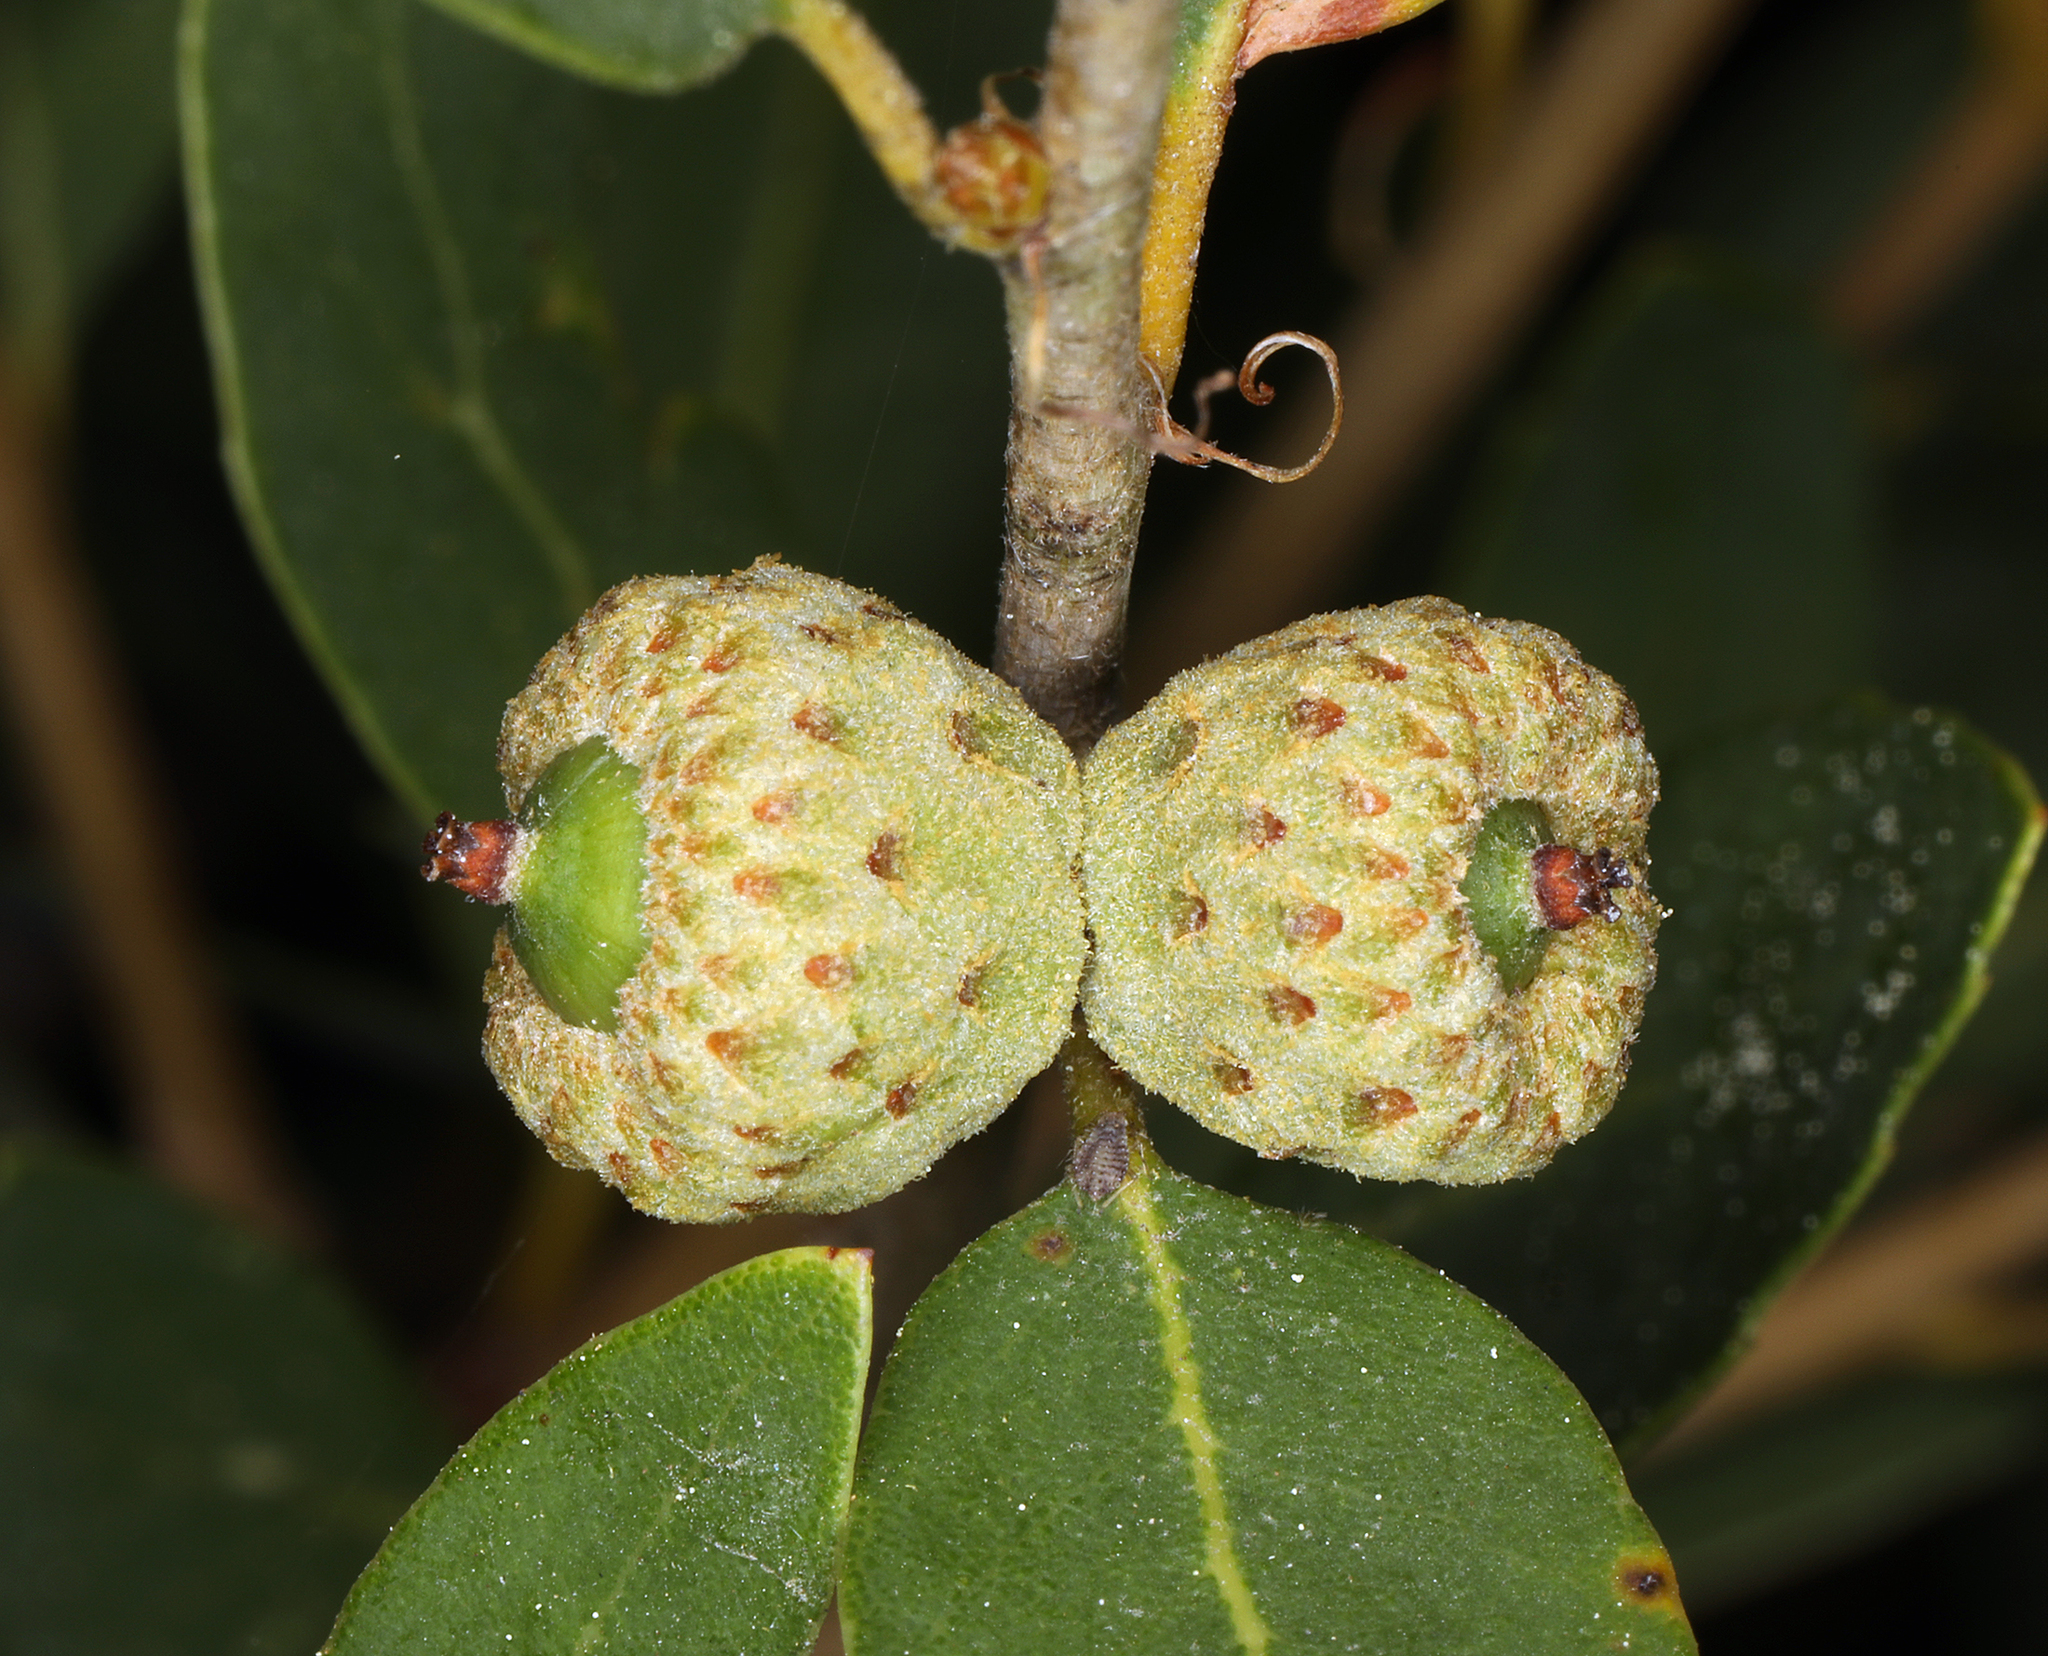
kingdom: Plantae
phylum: Tracheophyta
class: Magnoliopsida
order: Fagales
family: Fagaceae
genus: Quercus
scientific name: Quercus vacciniifolia
